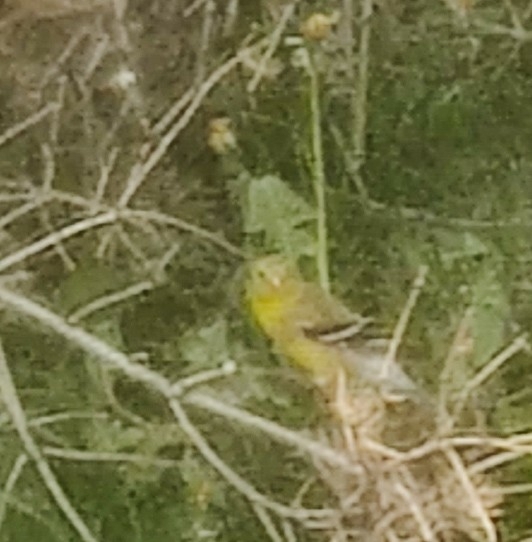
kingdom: Animalia
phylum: Chordata
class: Aves
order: Passeriformes
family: Fringillidae
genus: Spinus
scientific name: Spinus tristis
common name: American goldfinch
